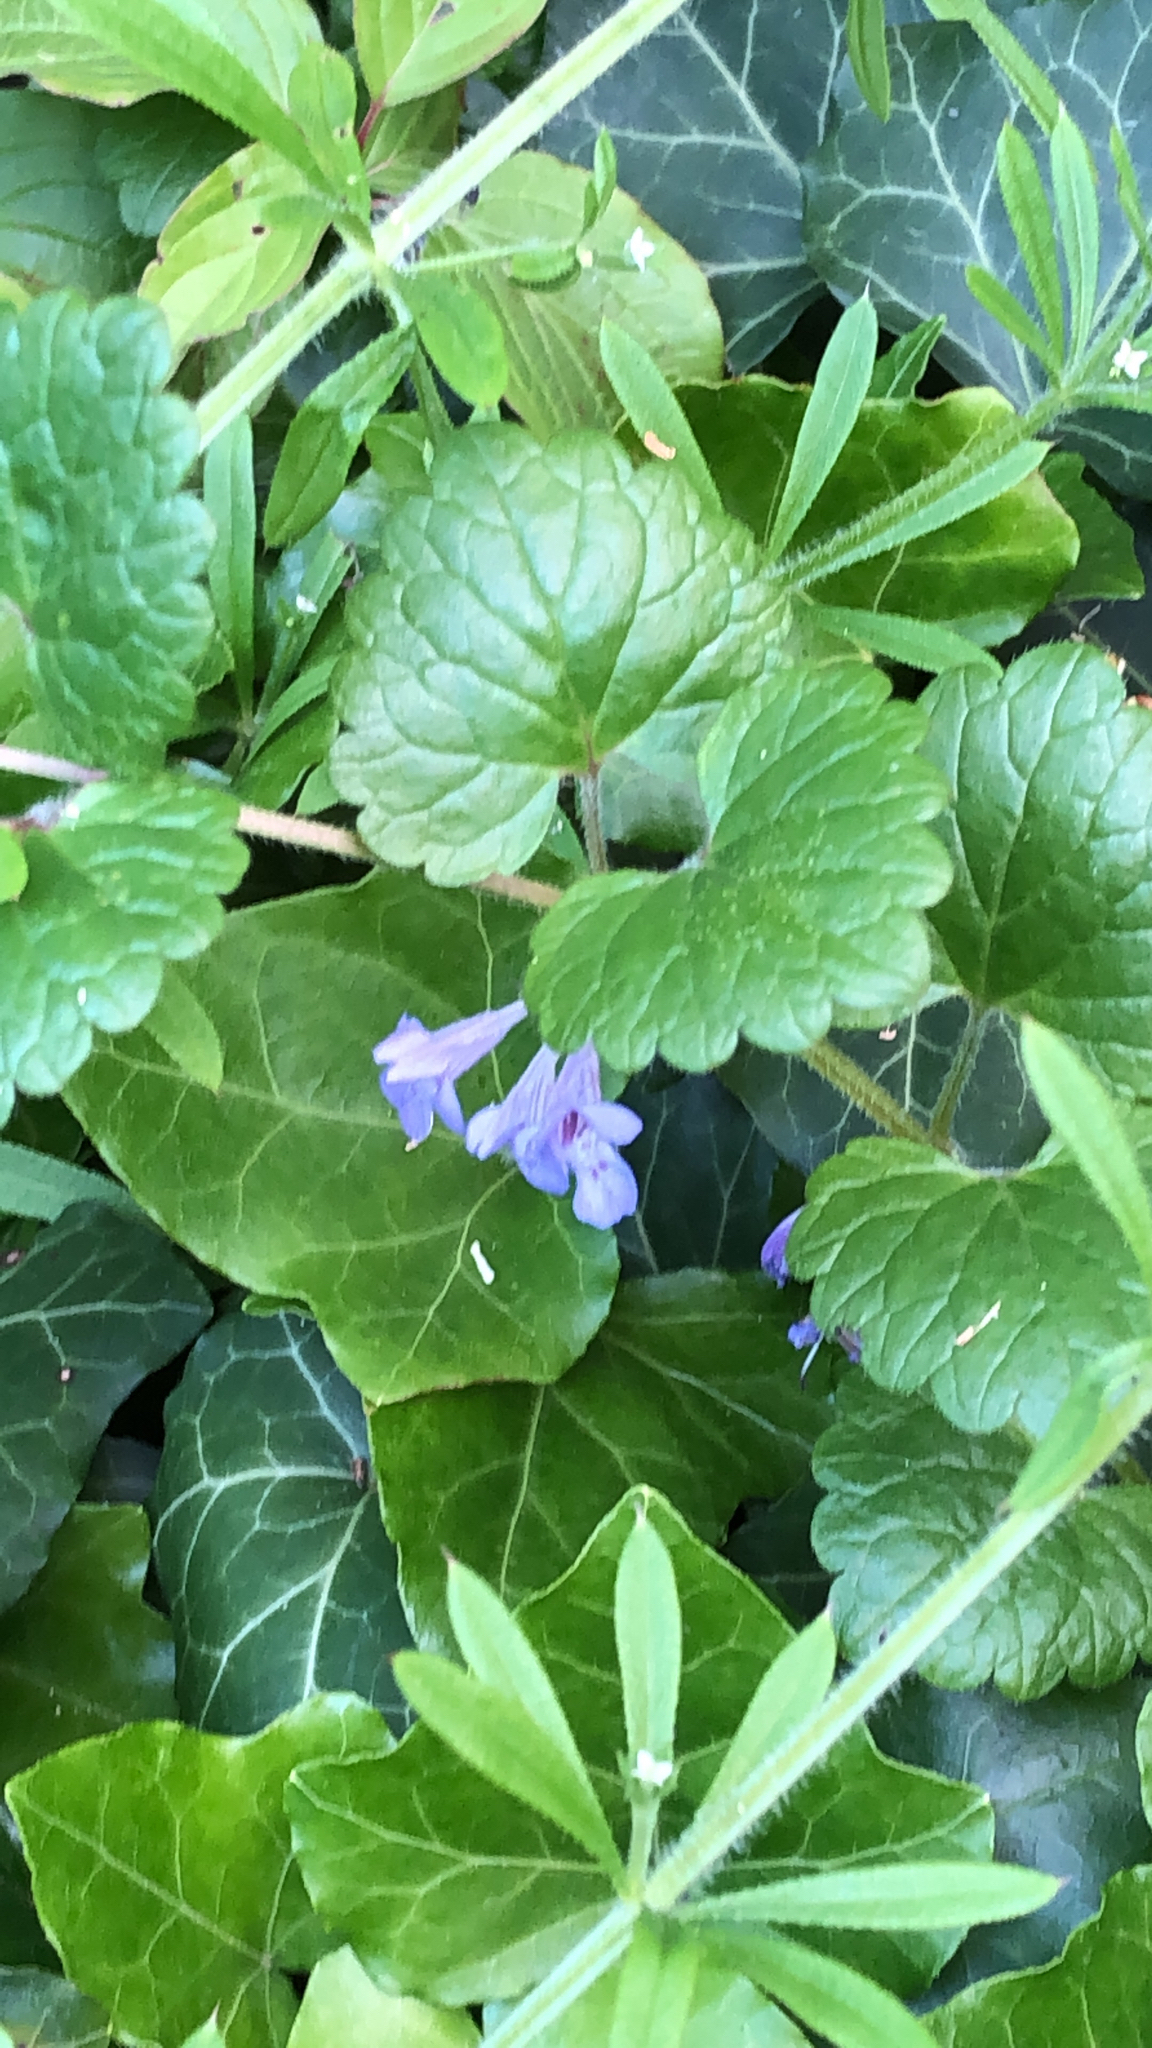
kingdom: Plantae
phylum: Tracheophyta
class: Magnoliopsida
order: Lamiales
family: Lamiaceae
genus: Glechoma
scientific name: Glechoma hederacea
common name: Ground ivy
